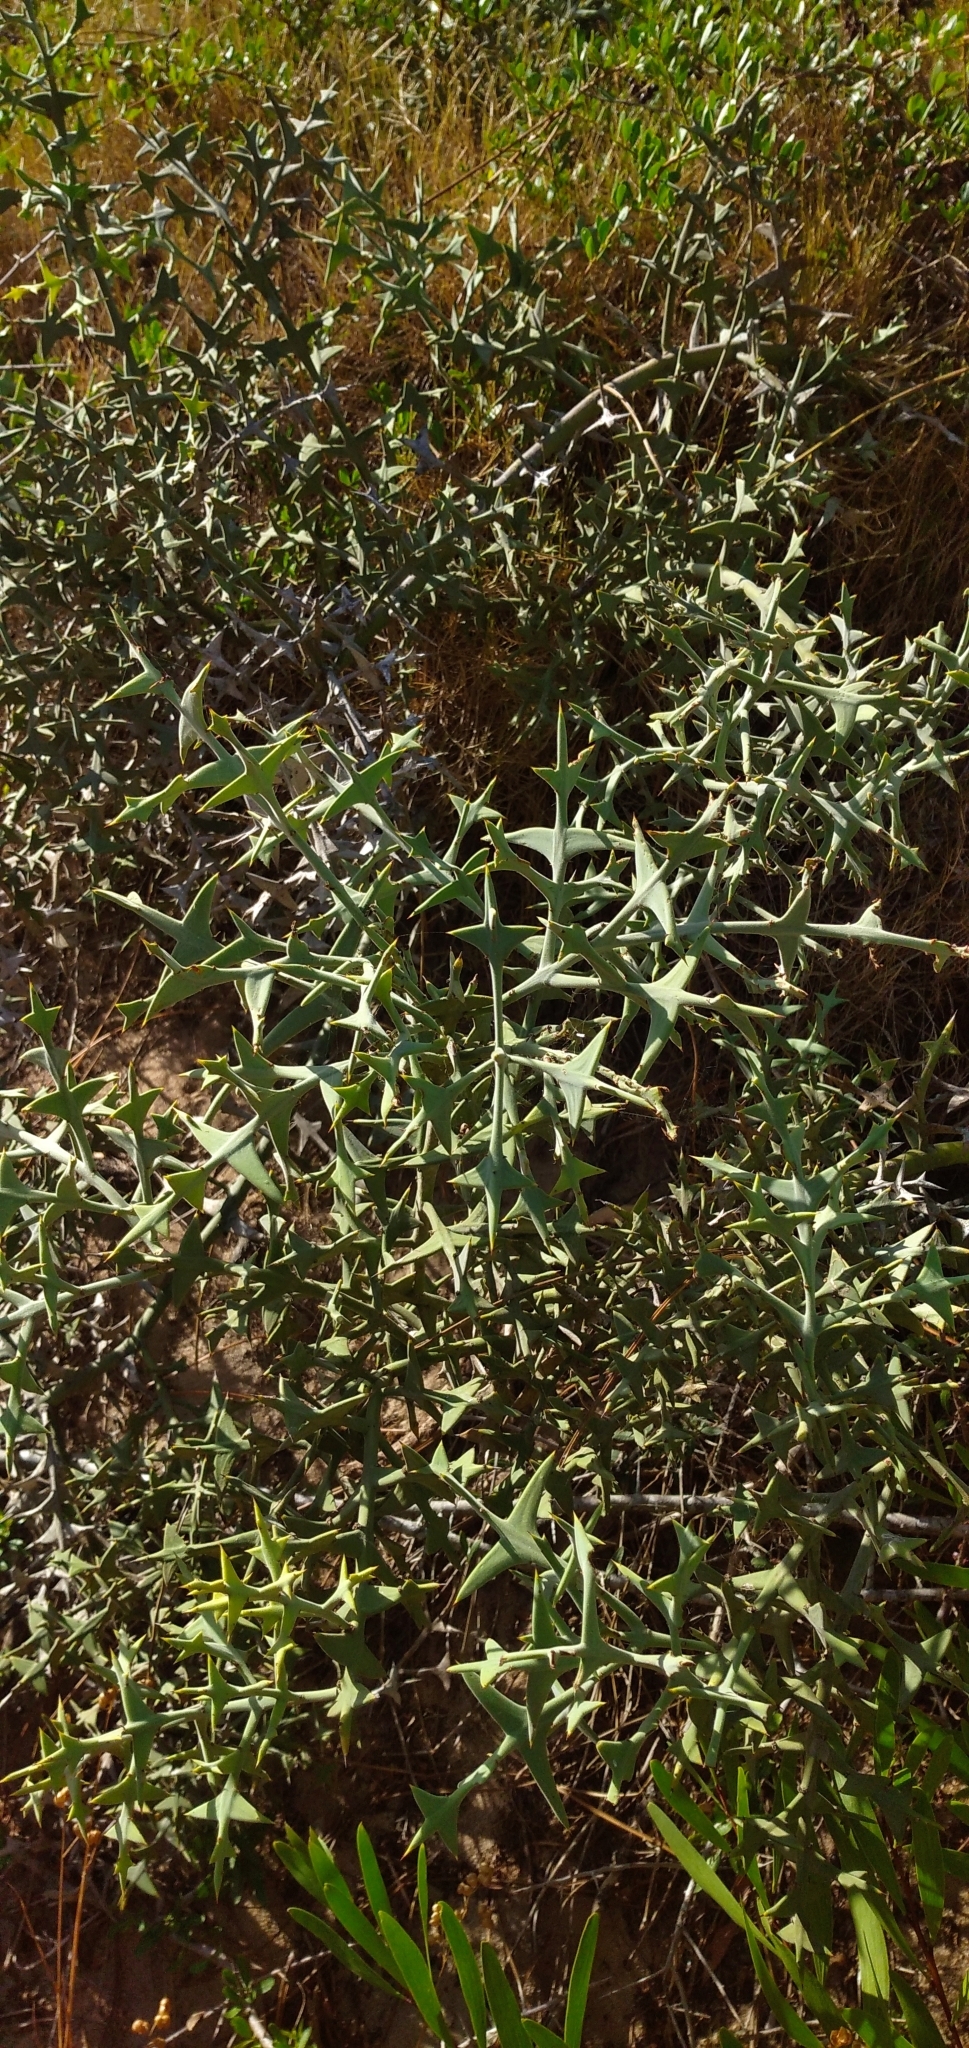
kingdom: Plantae
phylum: Tracheophyta
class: Magnoliopsida
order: Rosales
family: Rhamnaceae
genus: Colletia
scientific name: Colletia paradoxa
